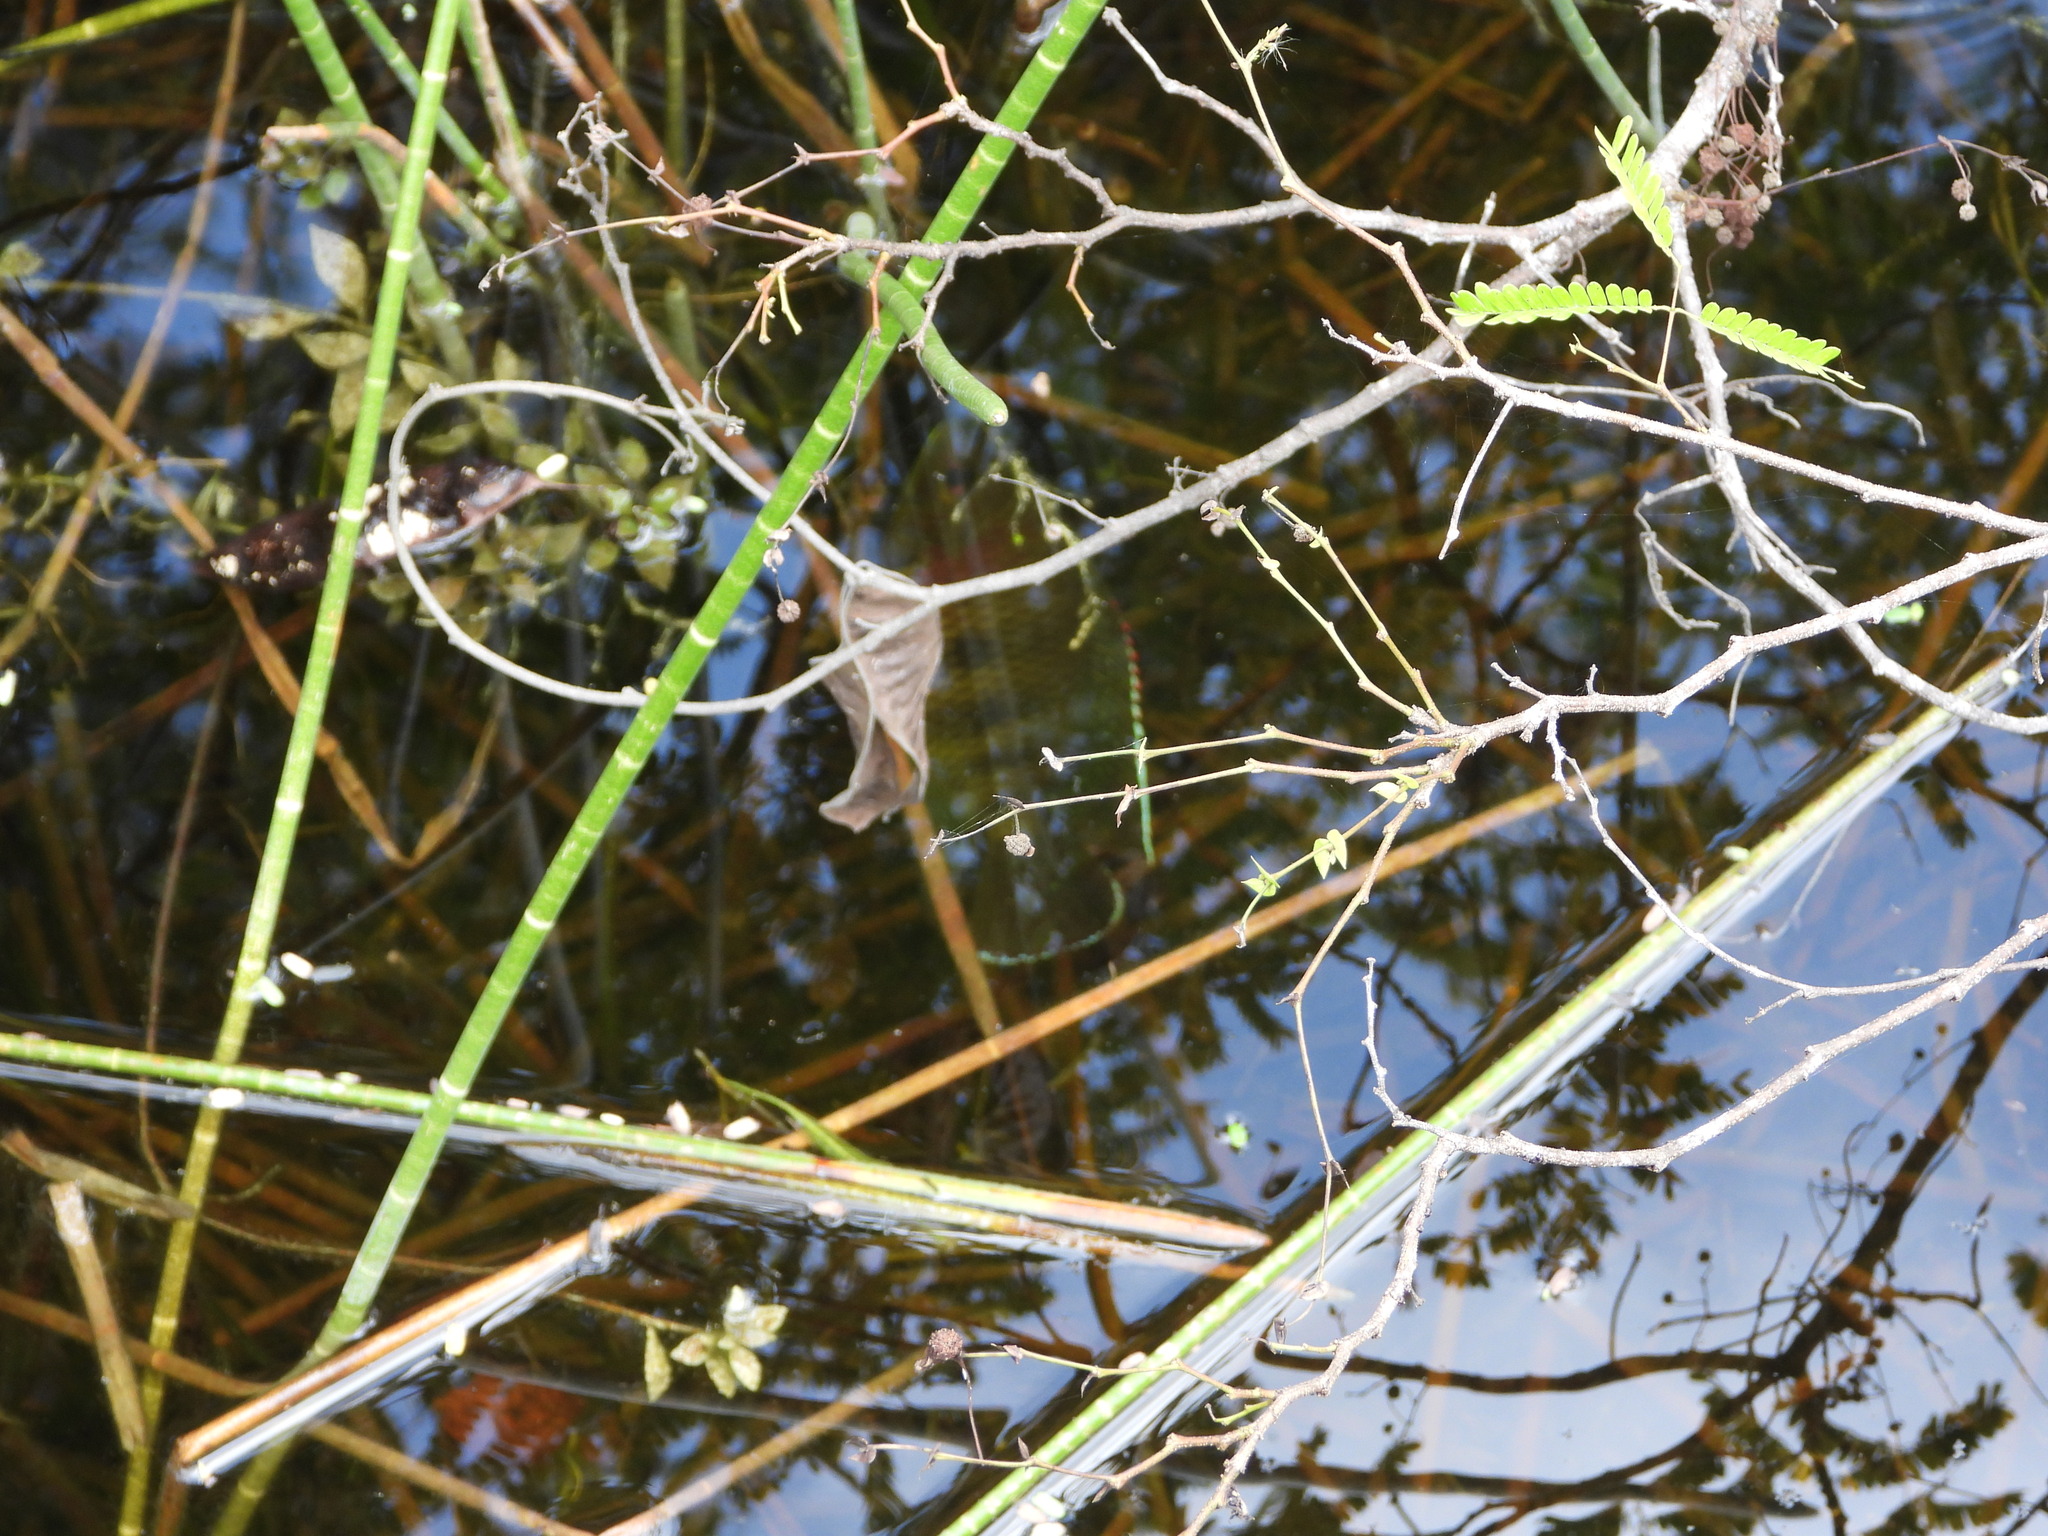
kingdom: Animalia
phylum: Chordata
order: Perciformes
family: Cichlidae
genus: Mayaheros
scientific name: Mayaheros urophthalmus
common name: Mayan cichlid
